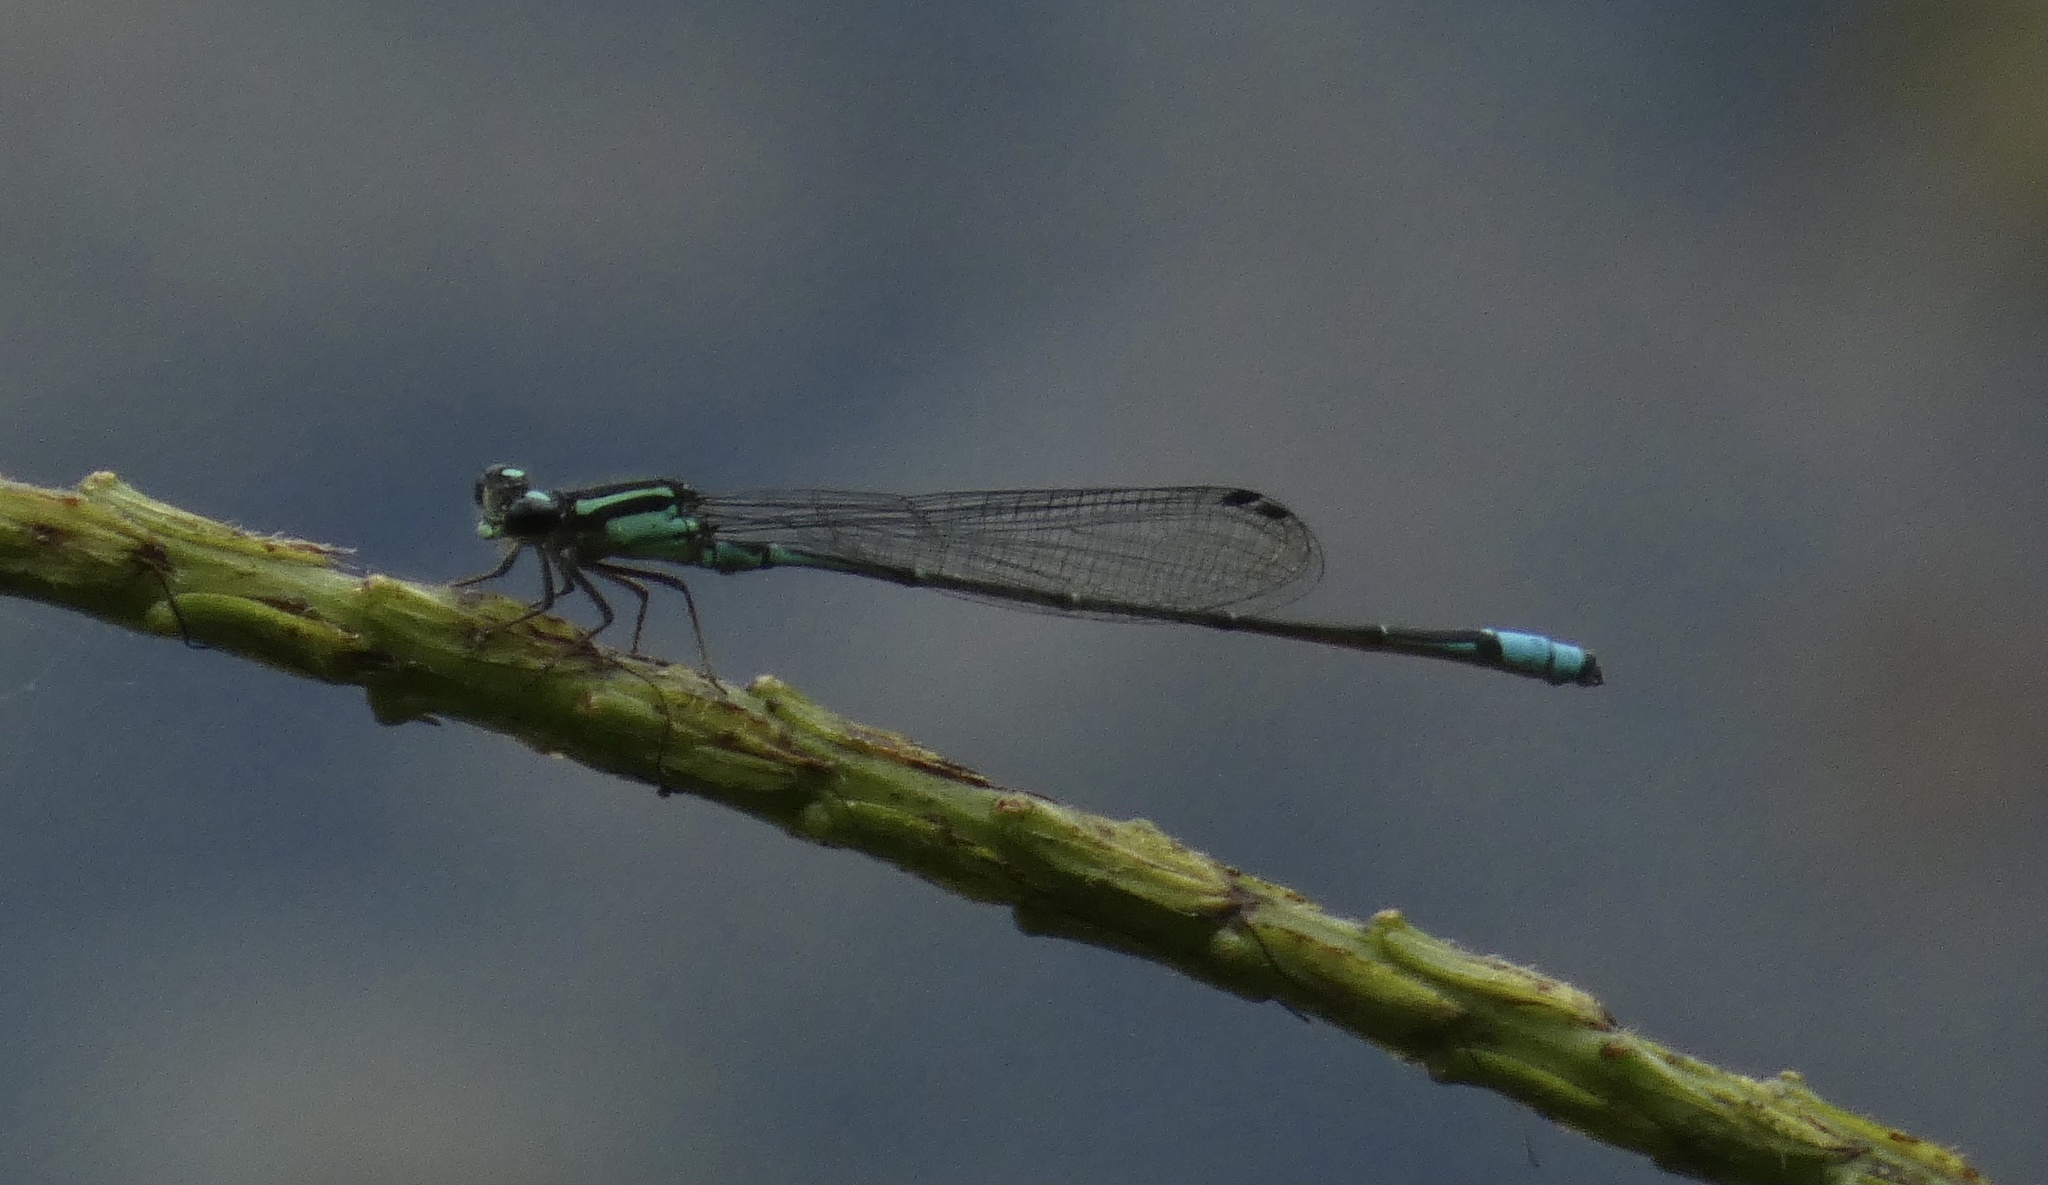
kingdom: Animalia
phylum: Arthropoda
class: Insecta
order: Odonata
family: Coenagrionidae
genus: Acanthagrion
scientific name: Acanthagrion lancea
